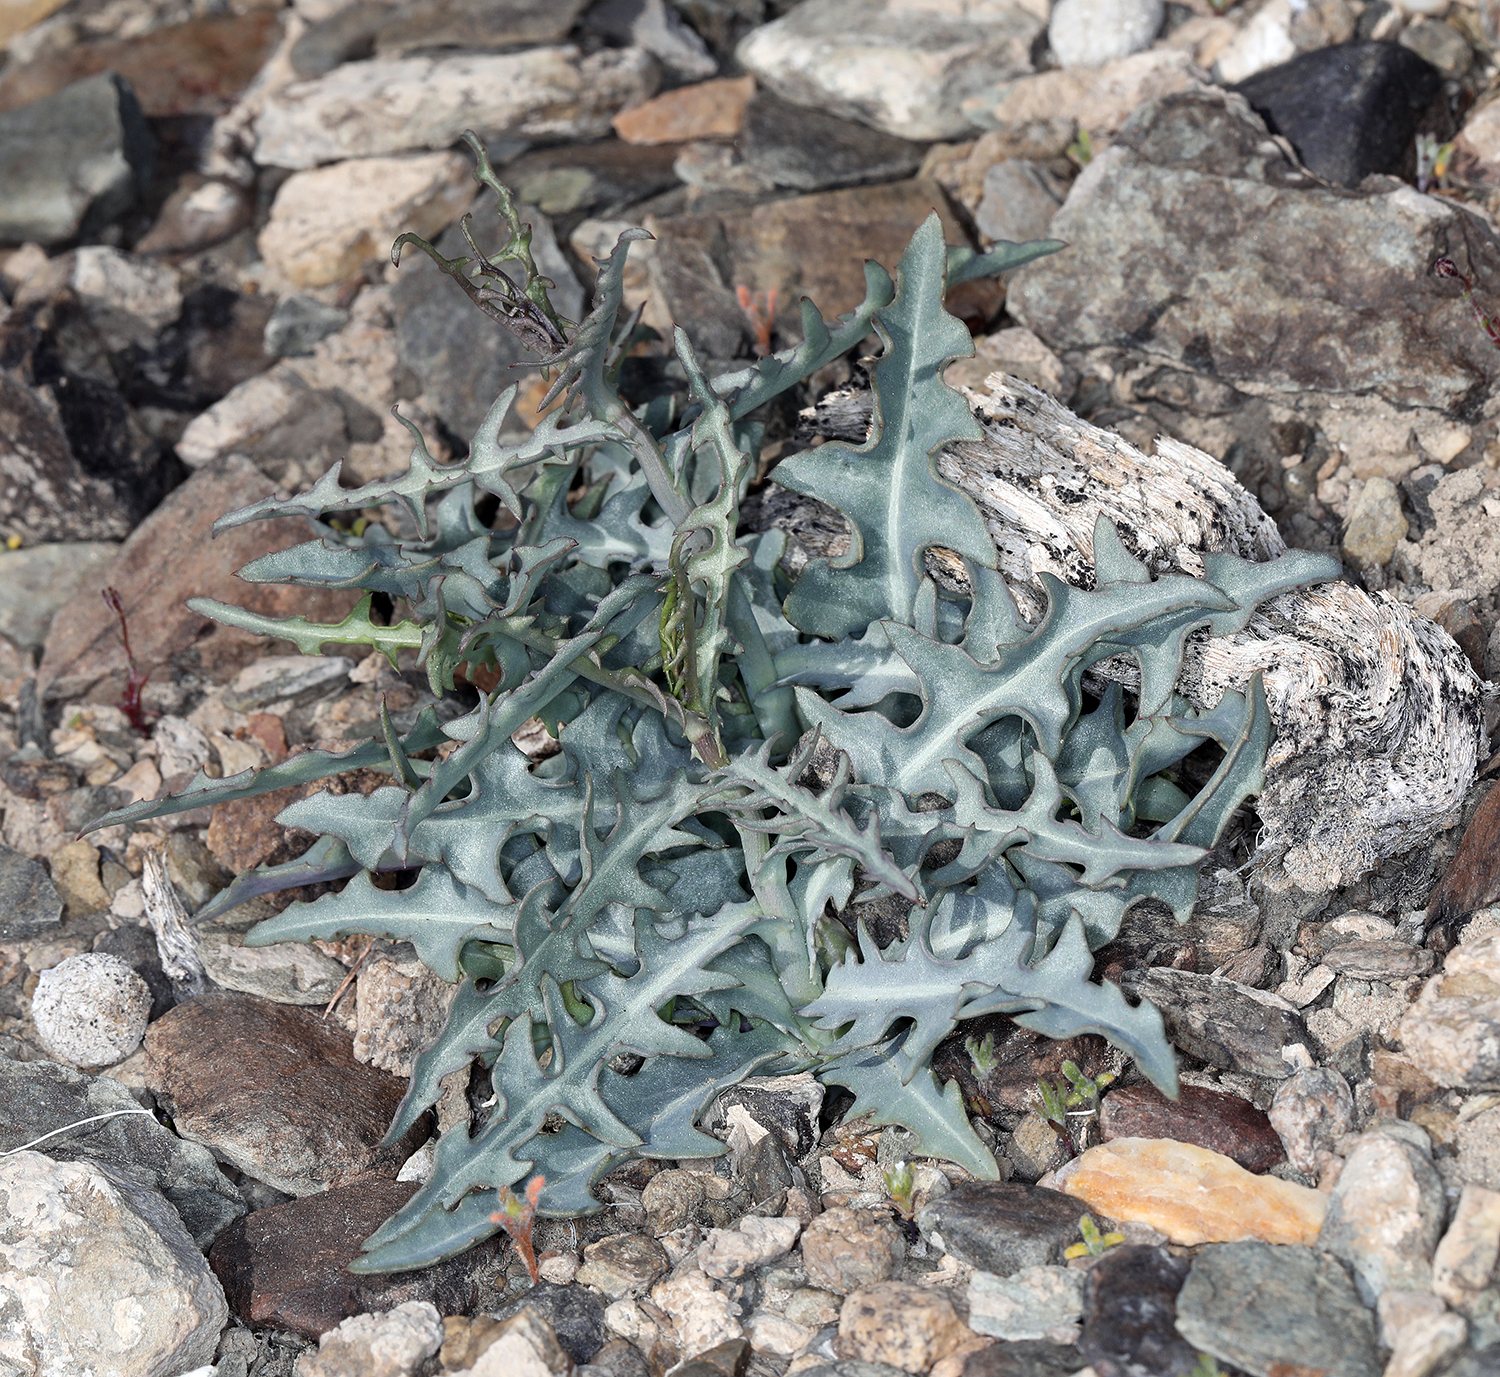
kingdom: Plantae
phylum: Tracheophyta
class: Magnoliopsida
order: Asterales
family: Asteraceae
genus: Stephanomeria
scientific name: Stephanomeria parryi
